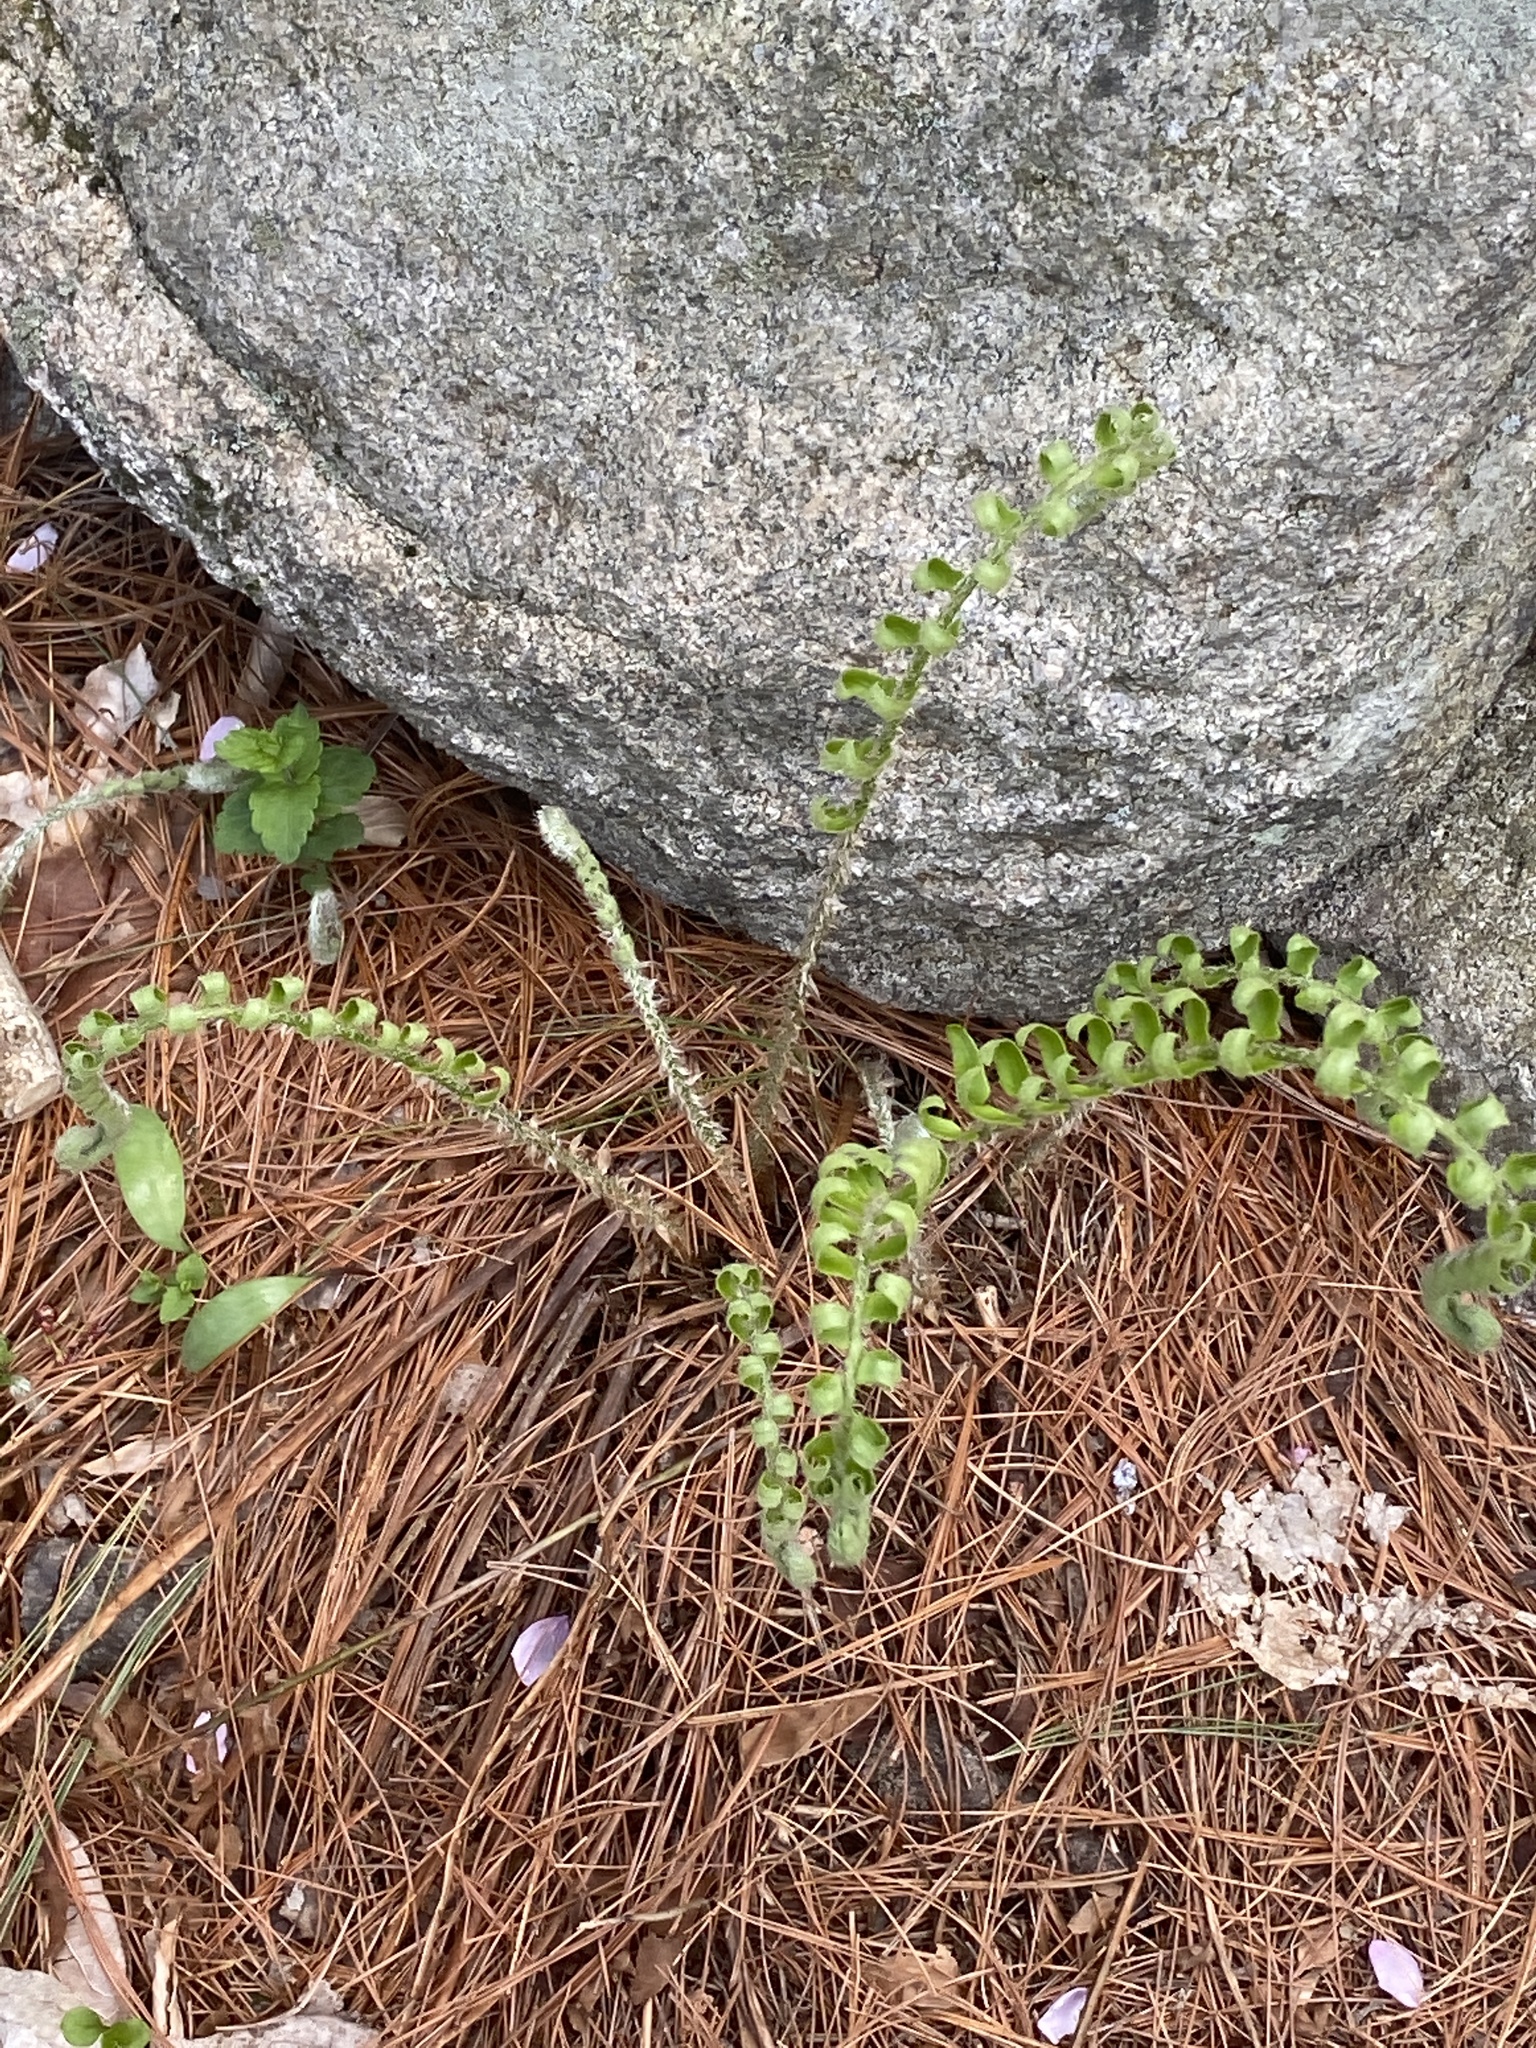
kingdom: Plantae
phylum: Tracheophyta
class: Polypodiopsida
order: Polypodiales
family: Dryopteridaceae
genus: Polystichum
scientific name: Polystichum acrostichoides
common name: Christmas fern
